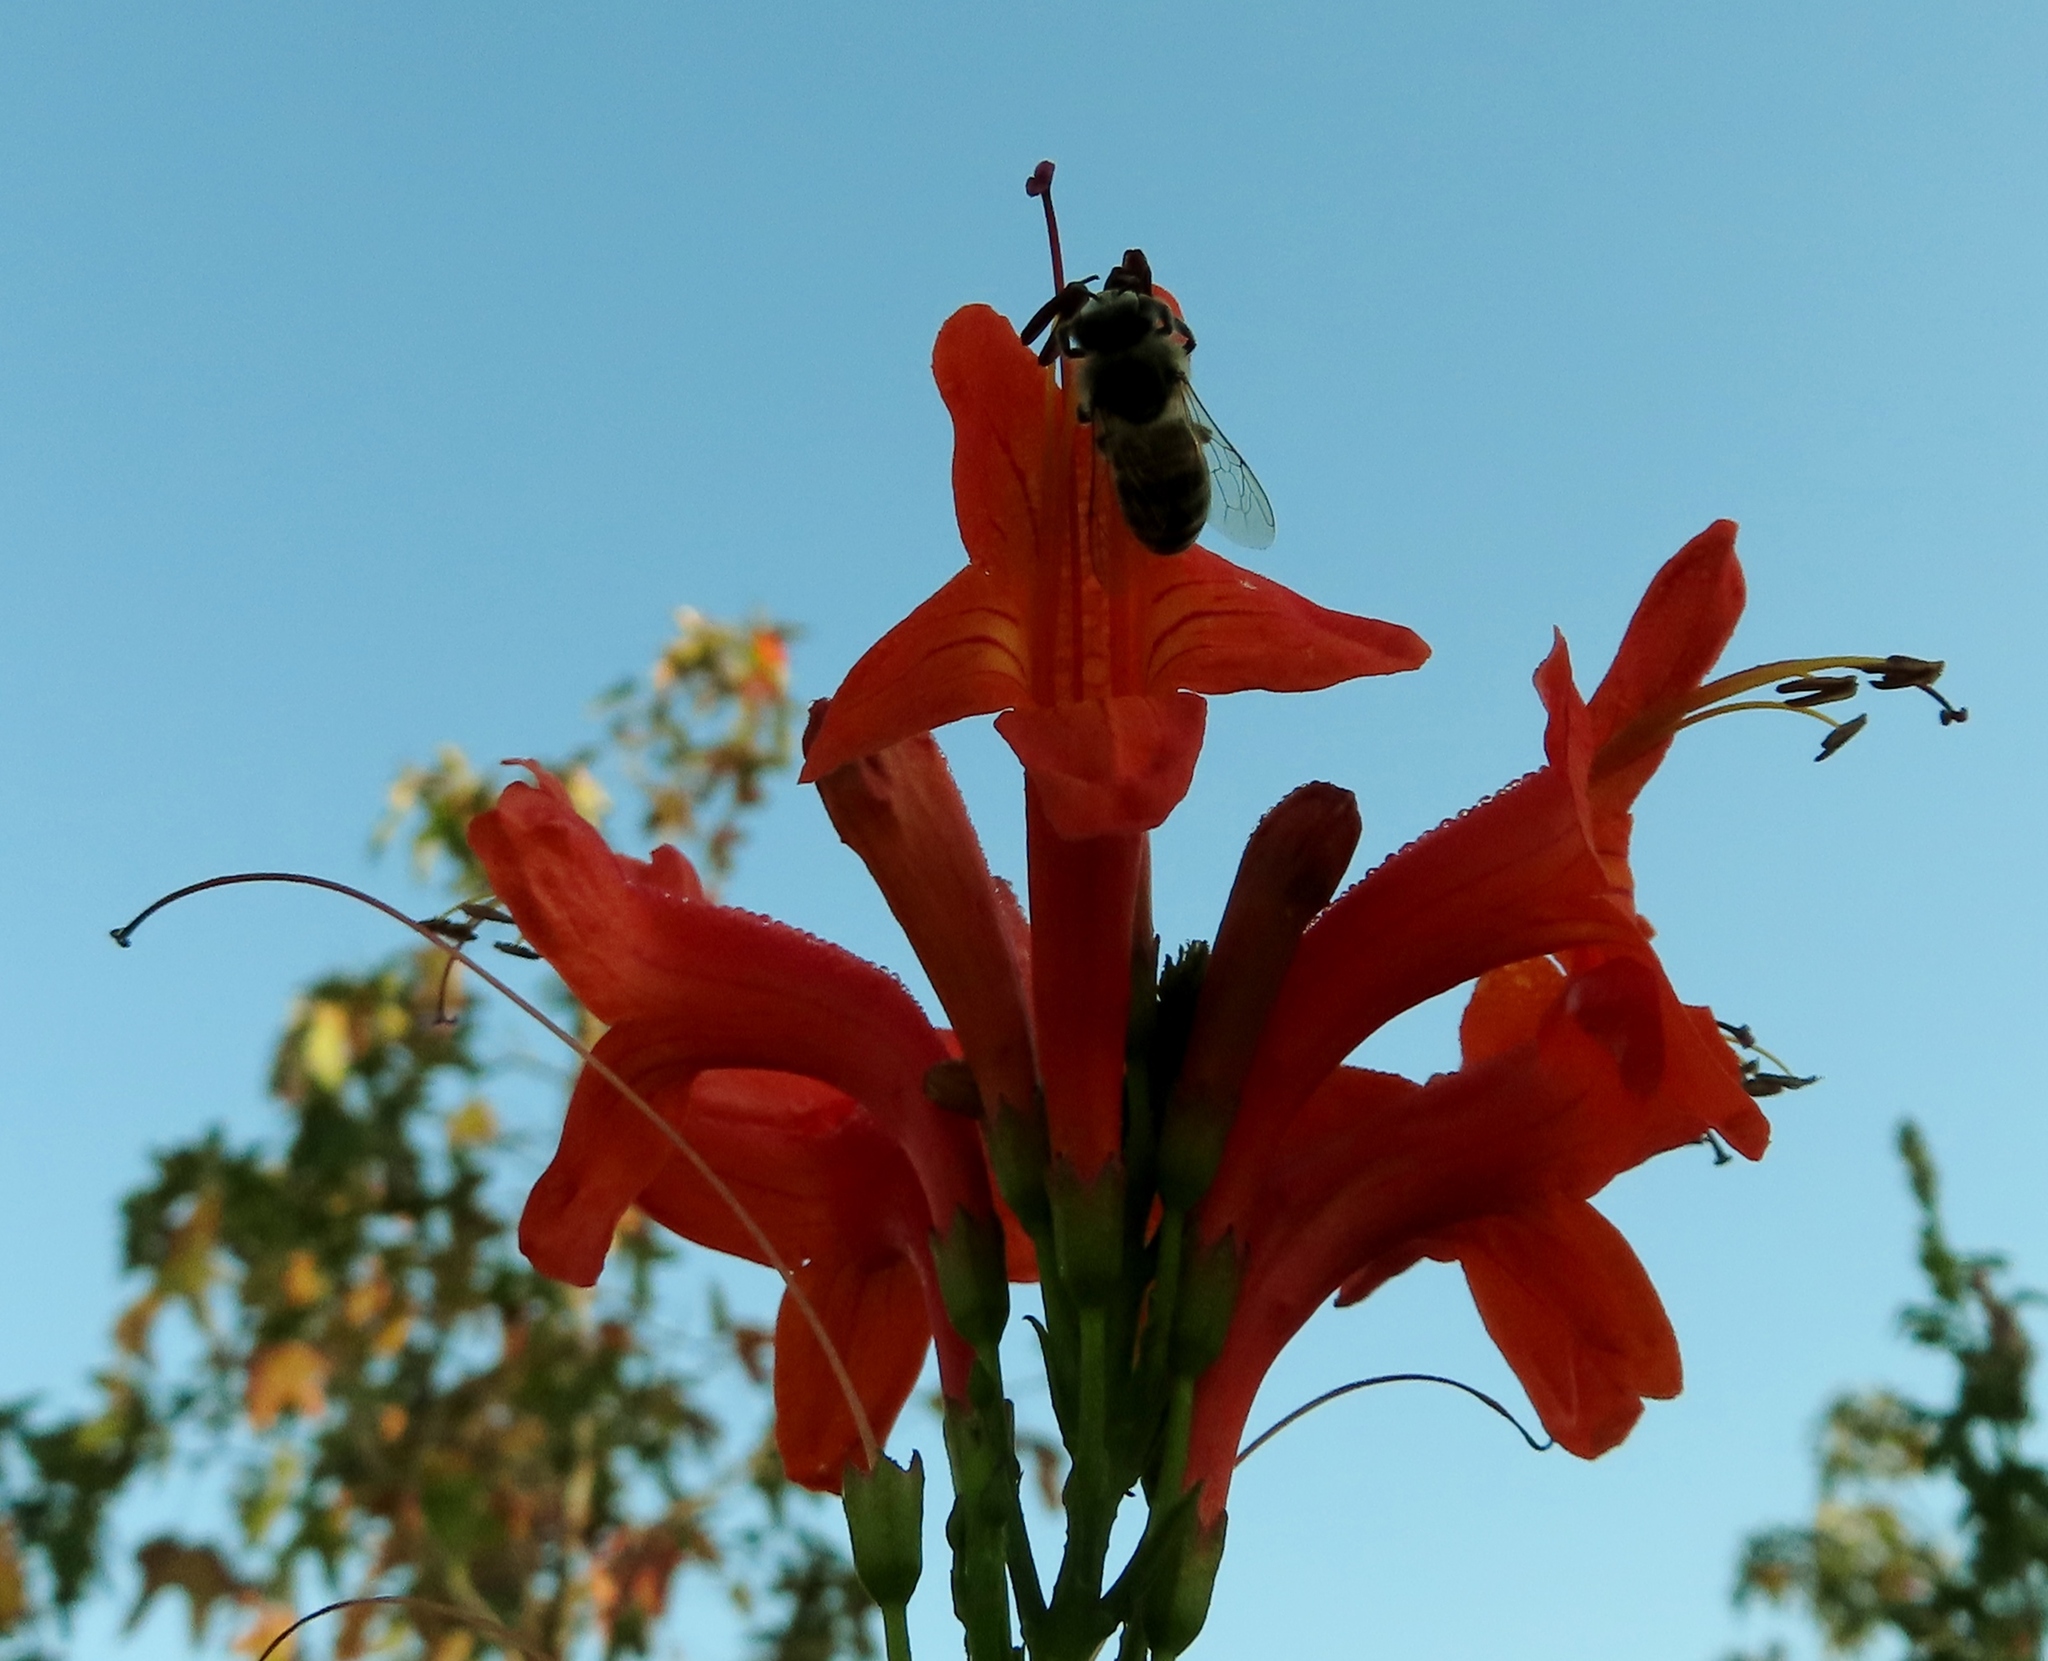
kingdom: Animalia
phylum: Arthropoda
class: Insecta
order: Hymenoptera
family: Apidae
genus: Apis
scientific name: Apis mellifera
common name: Honey bee
